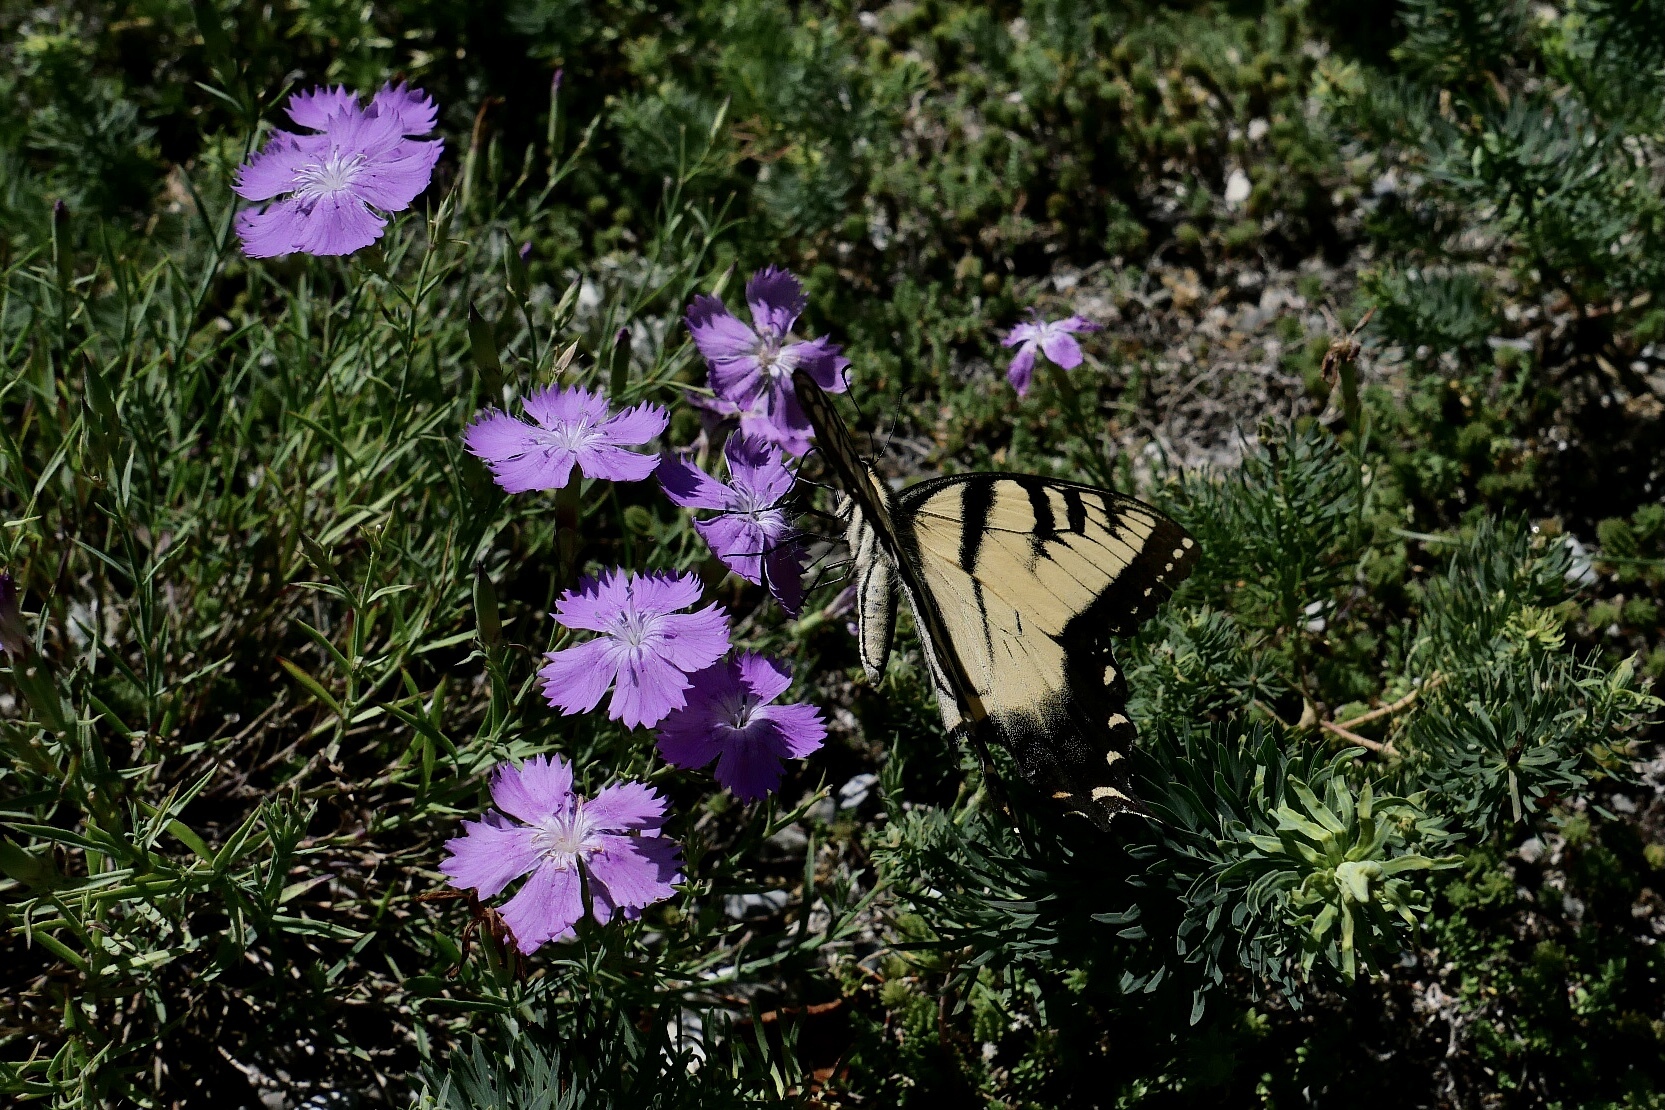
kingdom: Animalia
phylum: Arthropoda
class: Insecta
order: Lepidoptera
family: Papilionidae
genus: Papilio
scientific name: Papilio glaucus
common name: Tiger swallowtail
